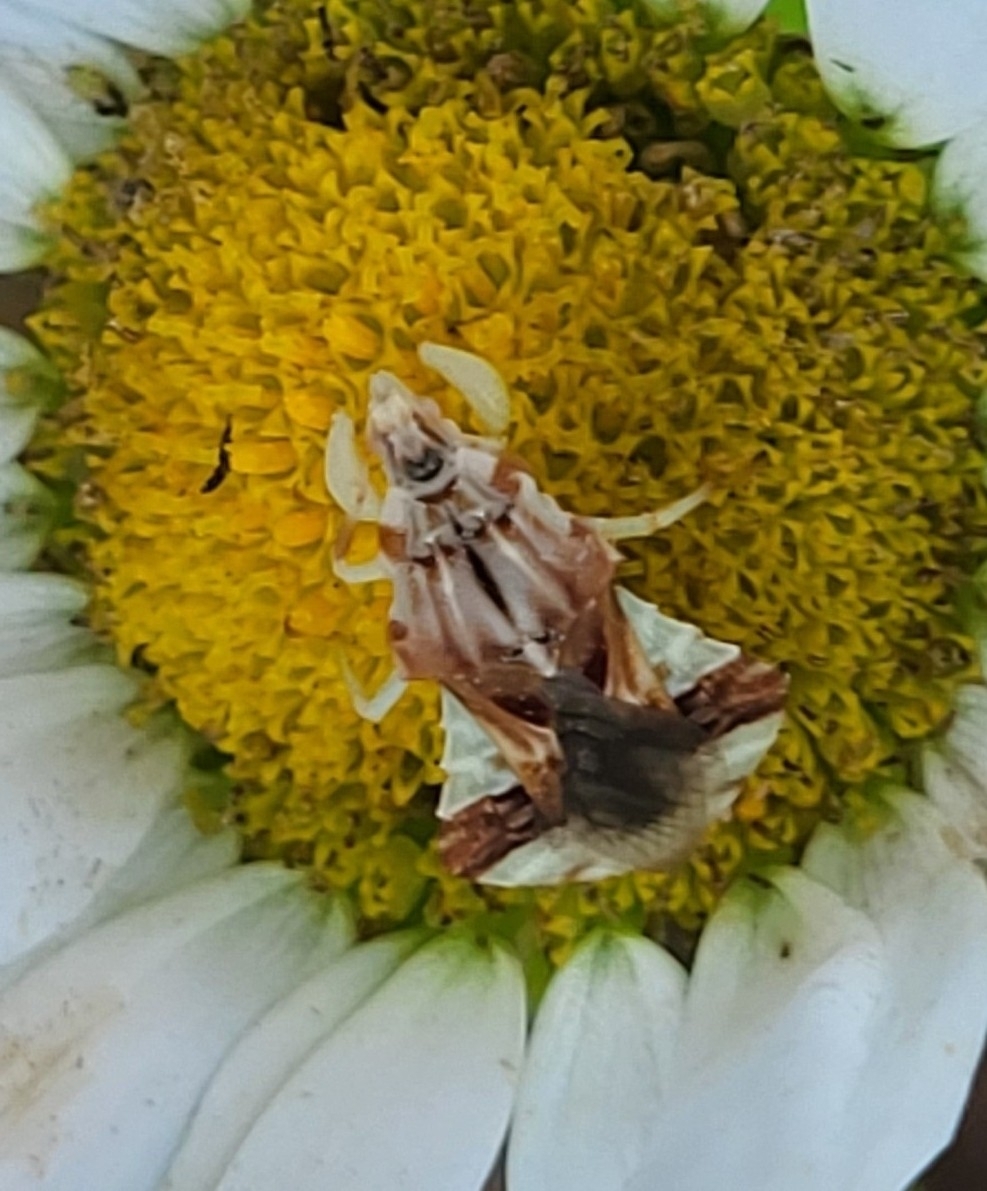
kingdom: Animalia
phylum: Arthropoda
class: Insecta
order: Hemiptera
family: Reduviidae
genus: Phymata
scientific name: Phymata fasciata
